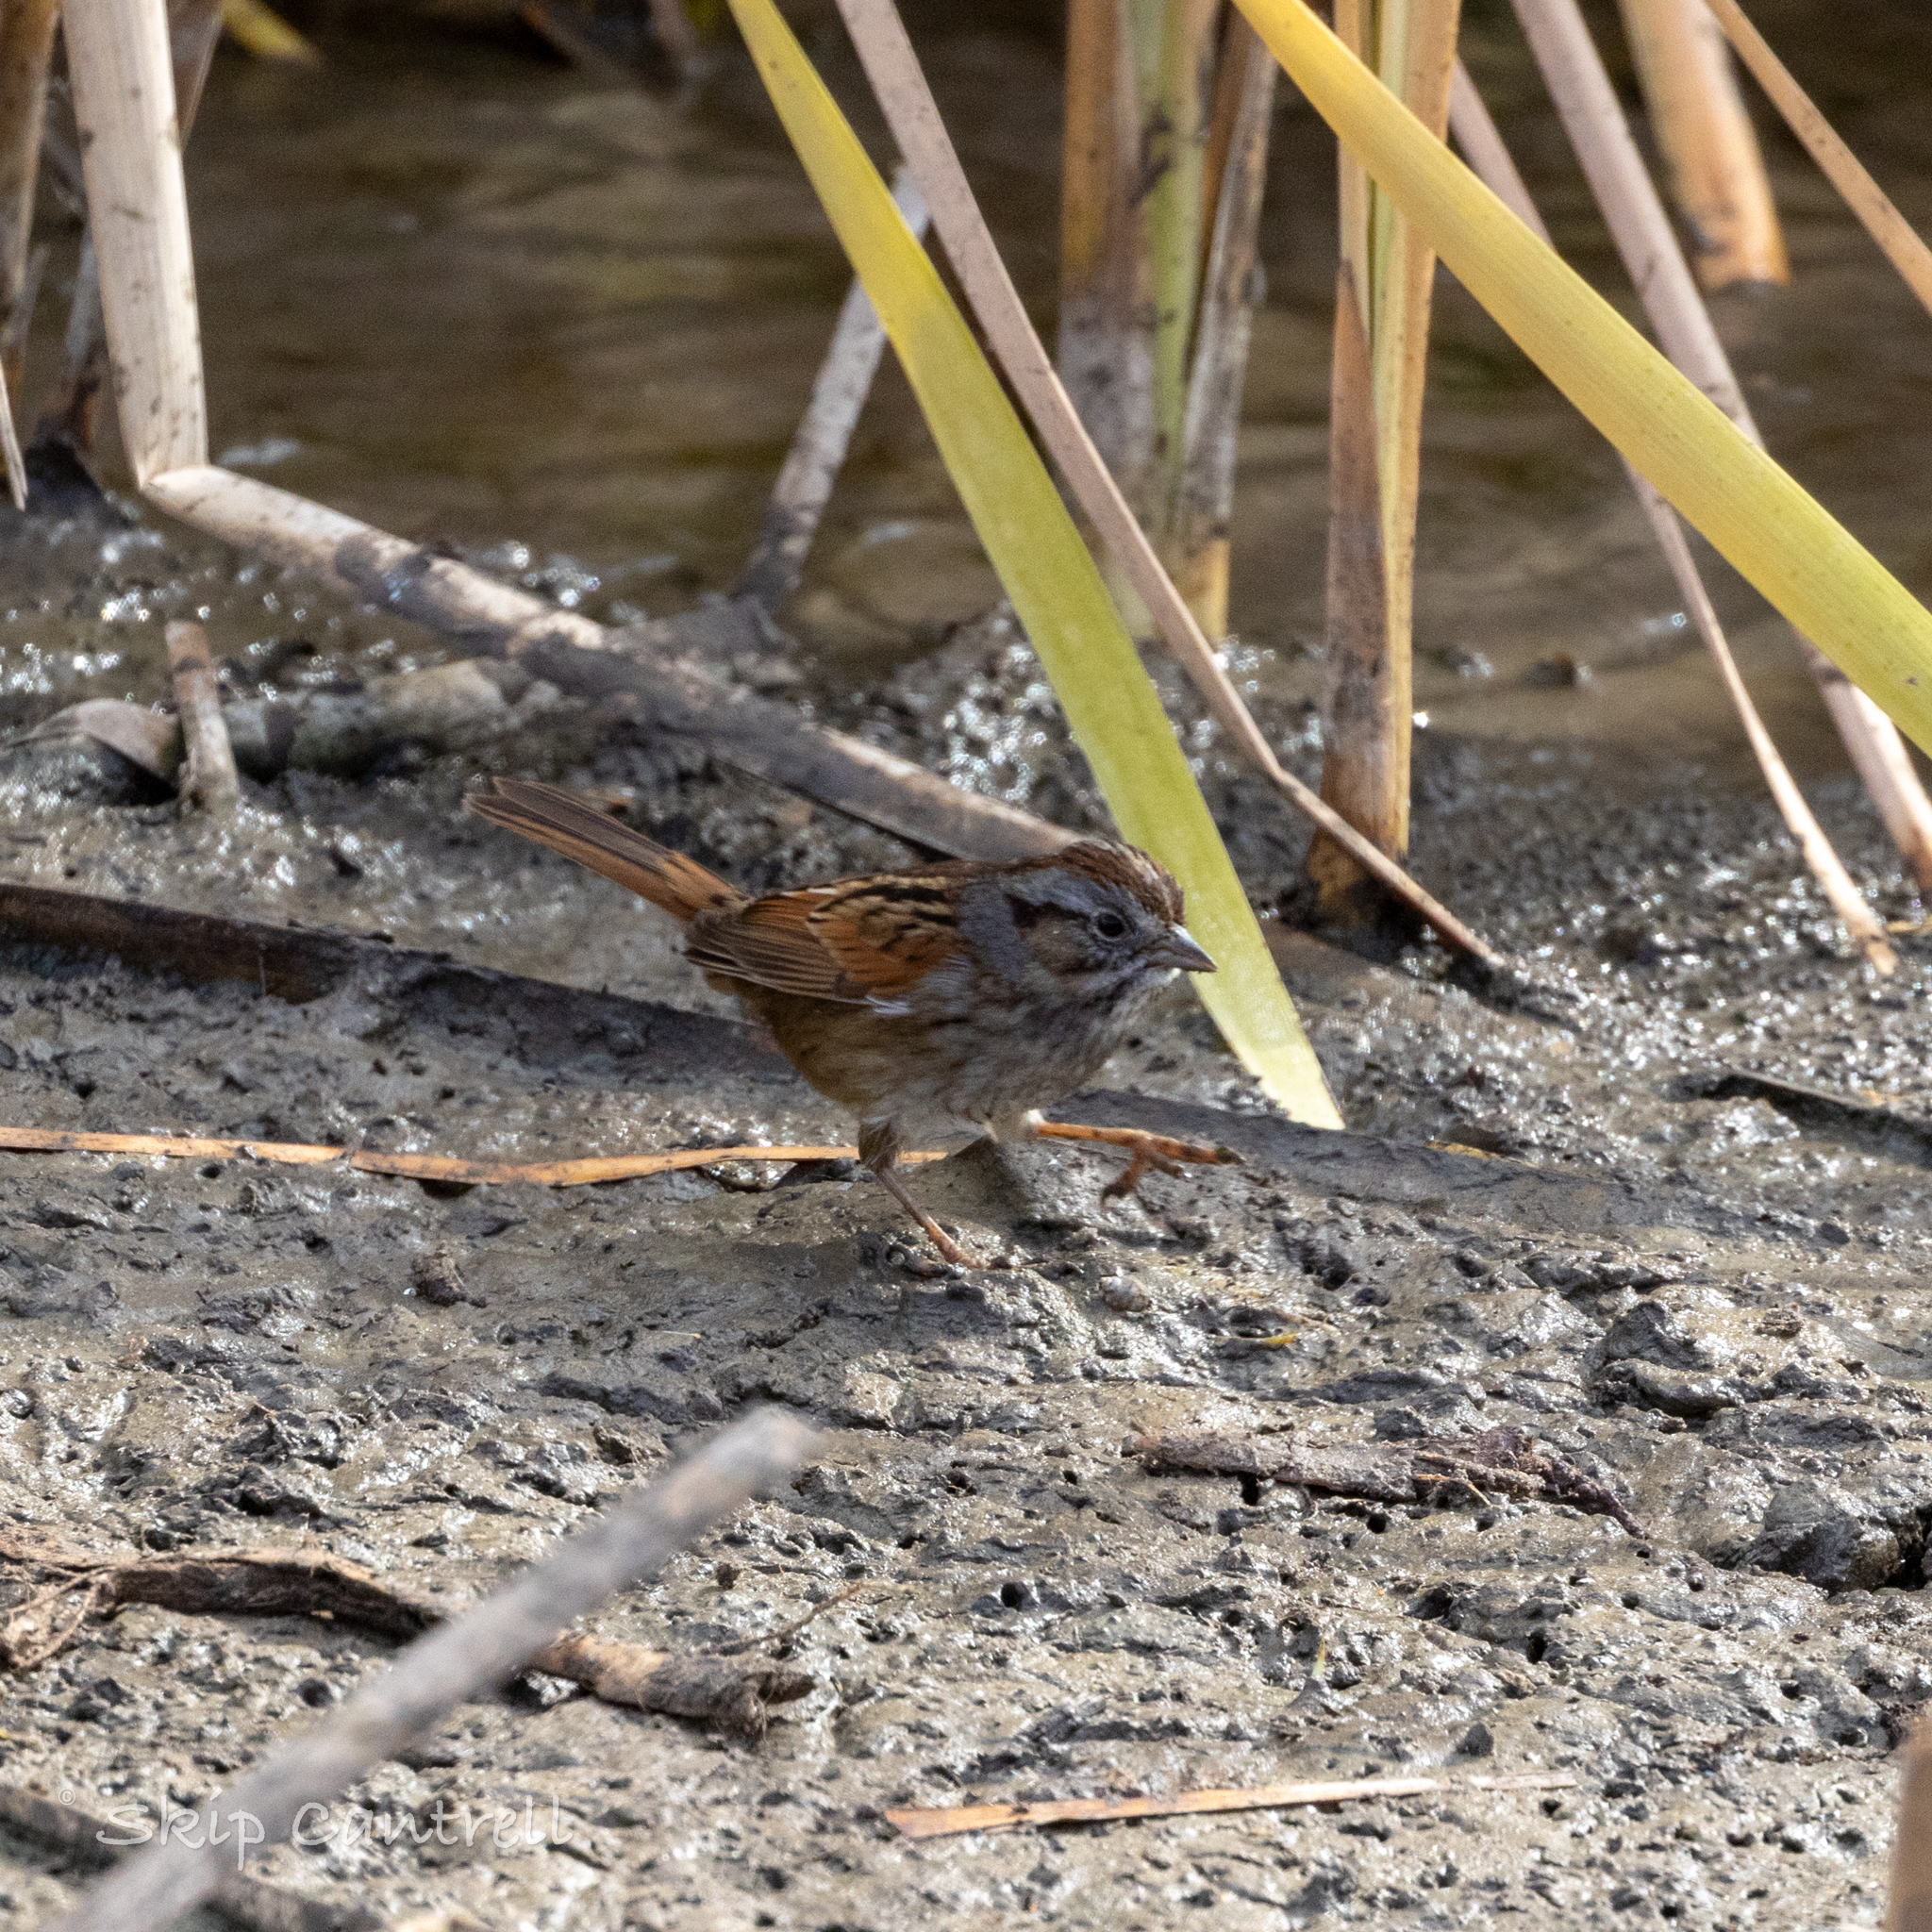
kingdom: Animalia
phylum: Chordata
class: Aves
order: Passeriformes
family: Passerellidae
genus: Melospiza
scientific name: Melospiza georgiana
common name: Swamp sparrow
